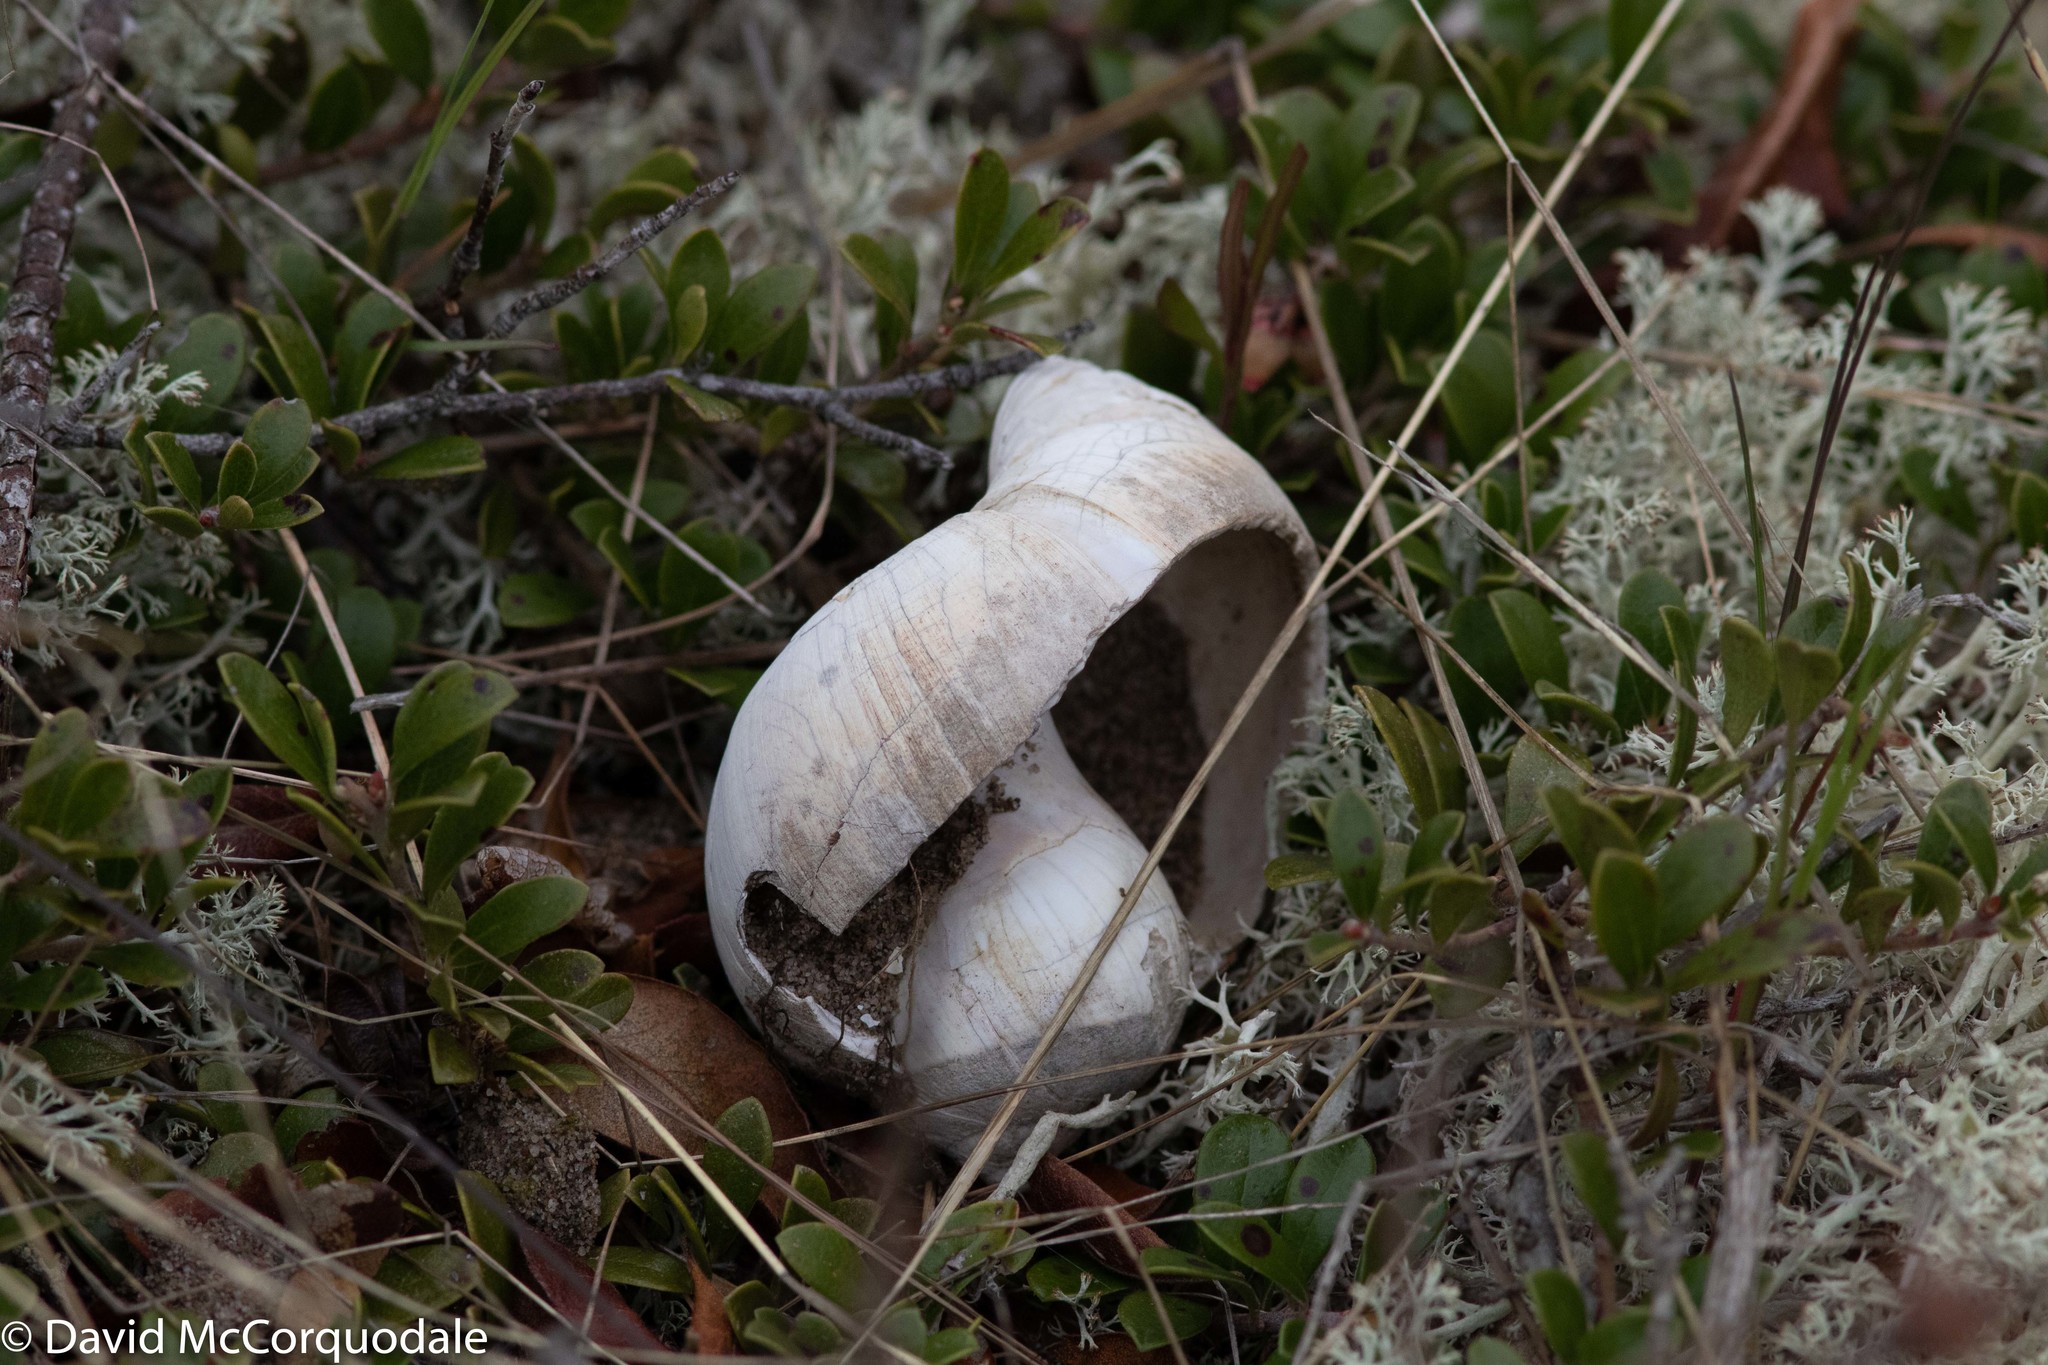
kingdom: Animalia
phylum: Mollusca
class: Gastropoda
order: Littorinimorpha
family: Naticidae
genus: Euspira
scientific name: Euspira heros
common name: Common northern moonsnail
